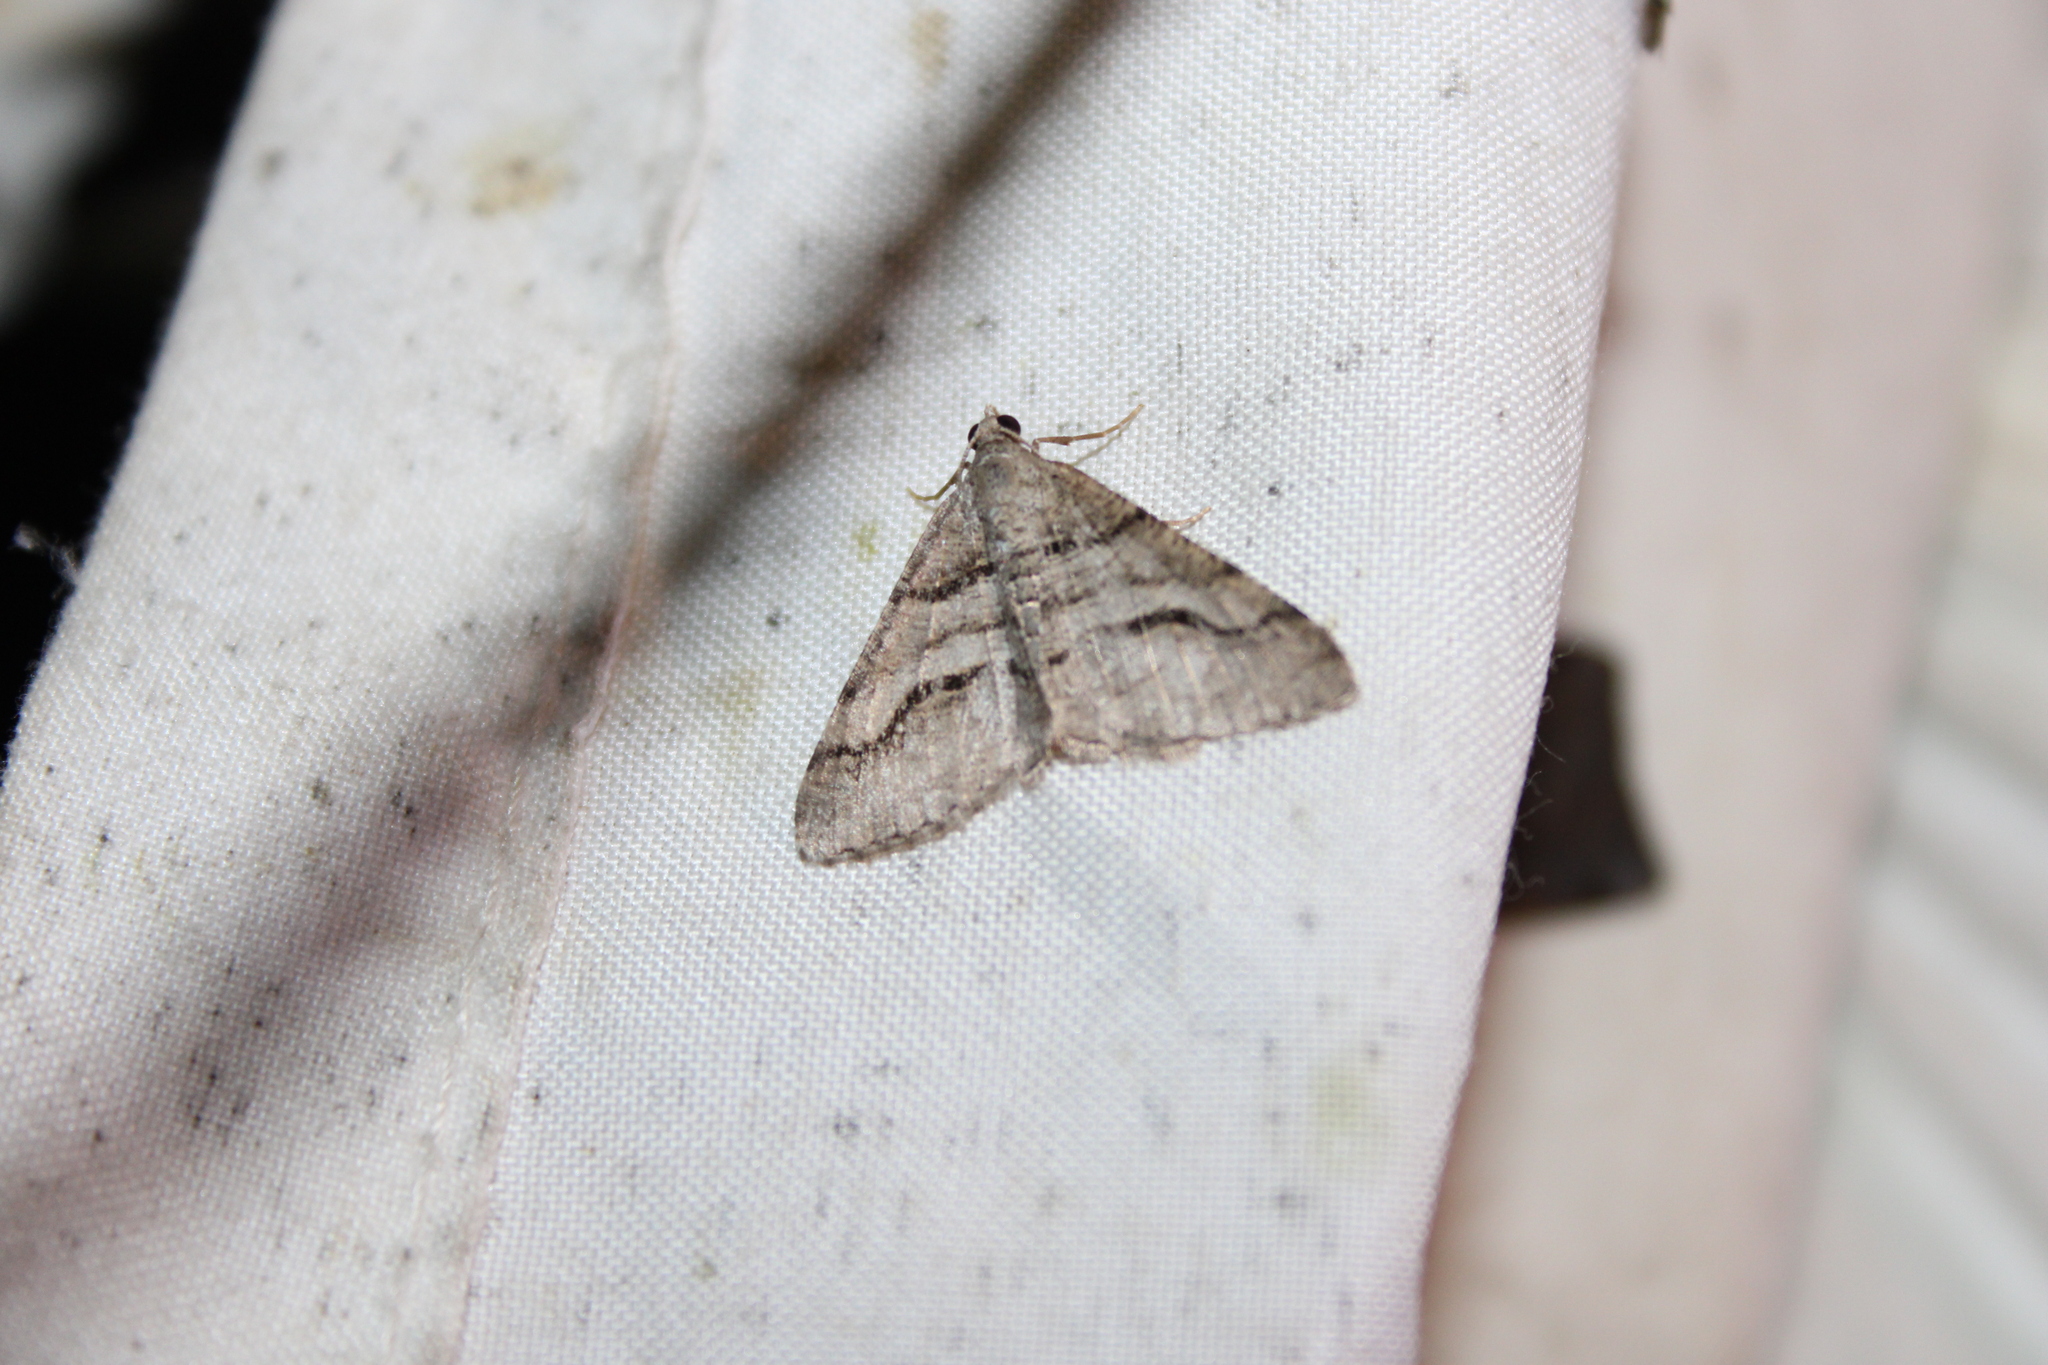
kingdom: Animalia
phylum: Arthropoda
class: Insecta
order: Lepidoptera
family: Geometridae
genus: Digrammia
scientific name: Digrammia continuata
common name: Curve-lined angle
